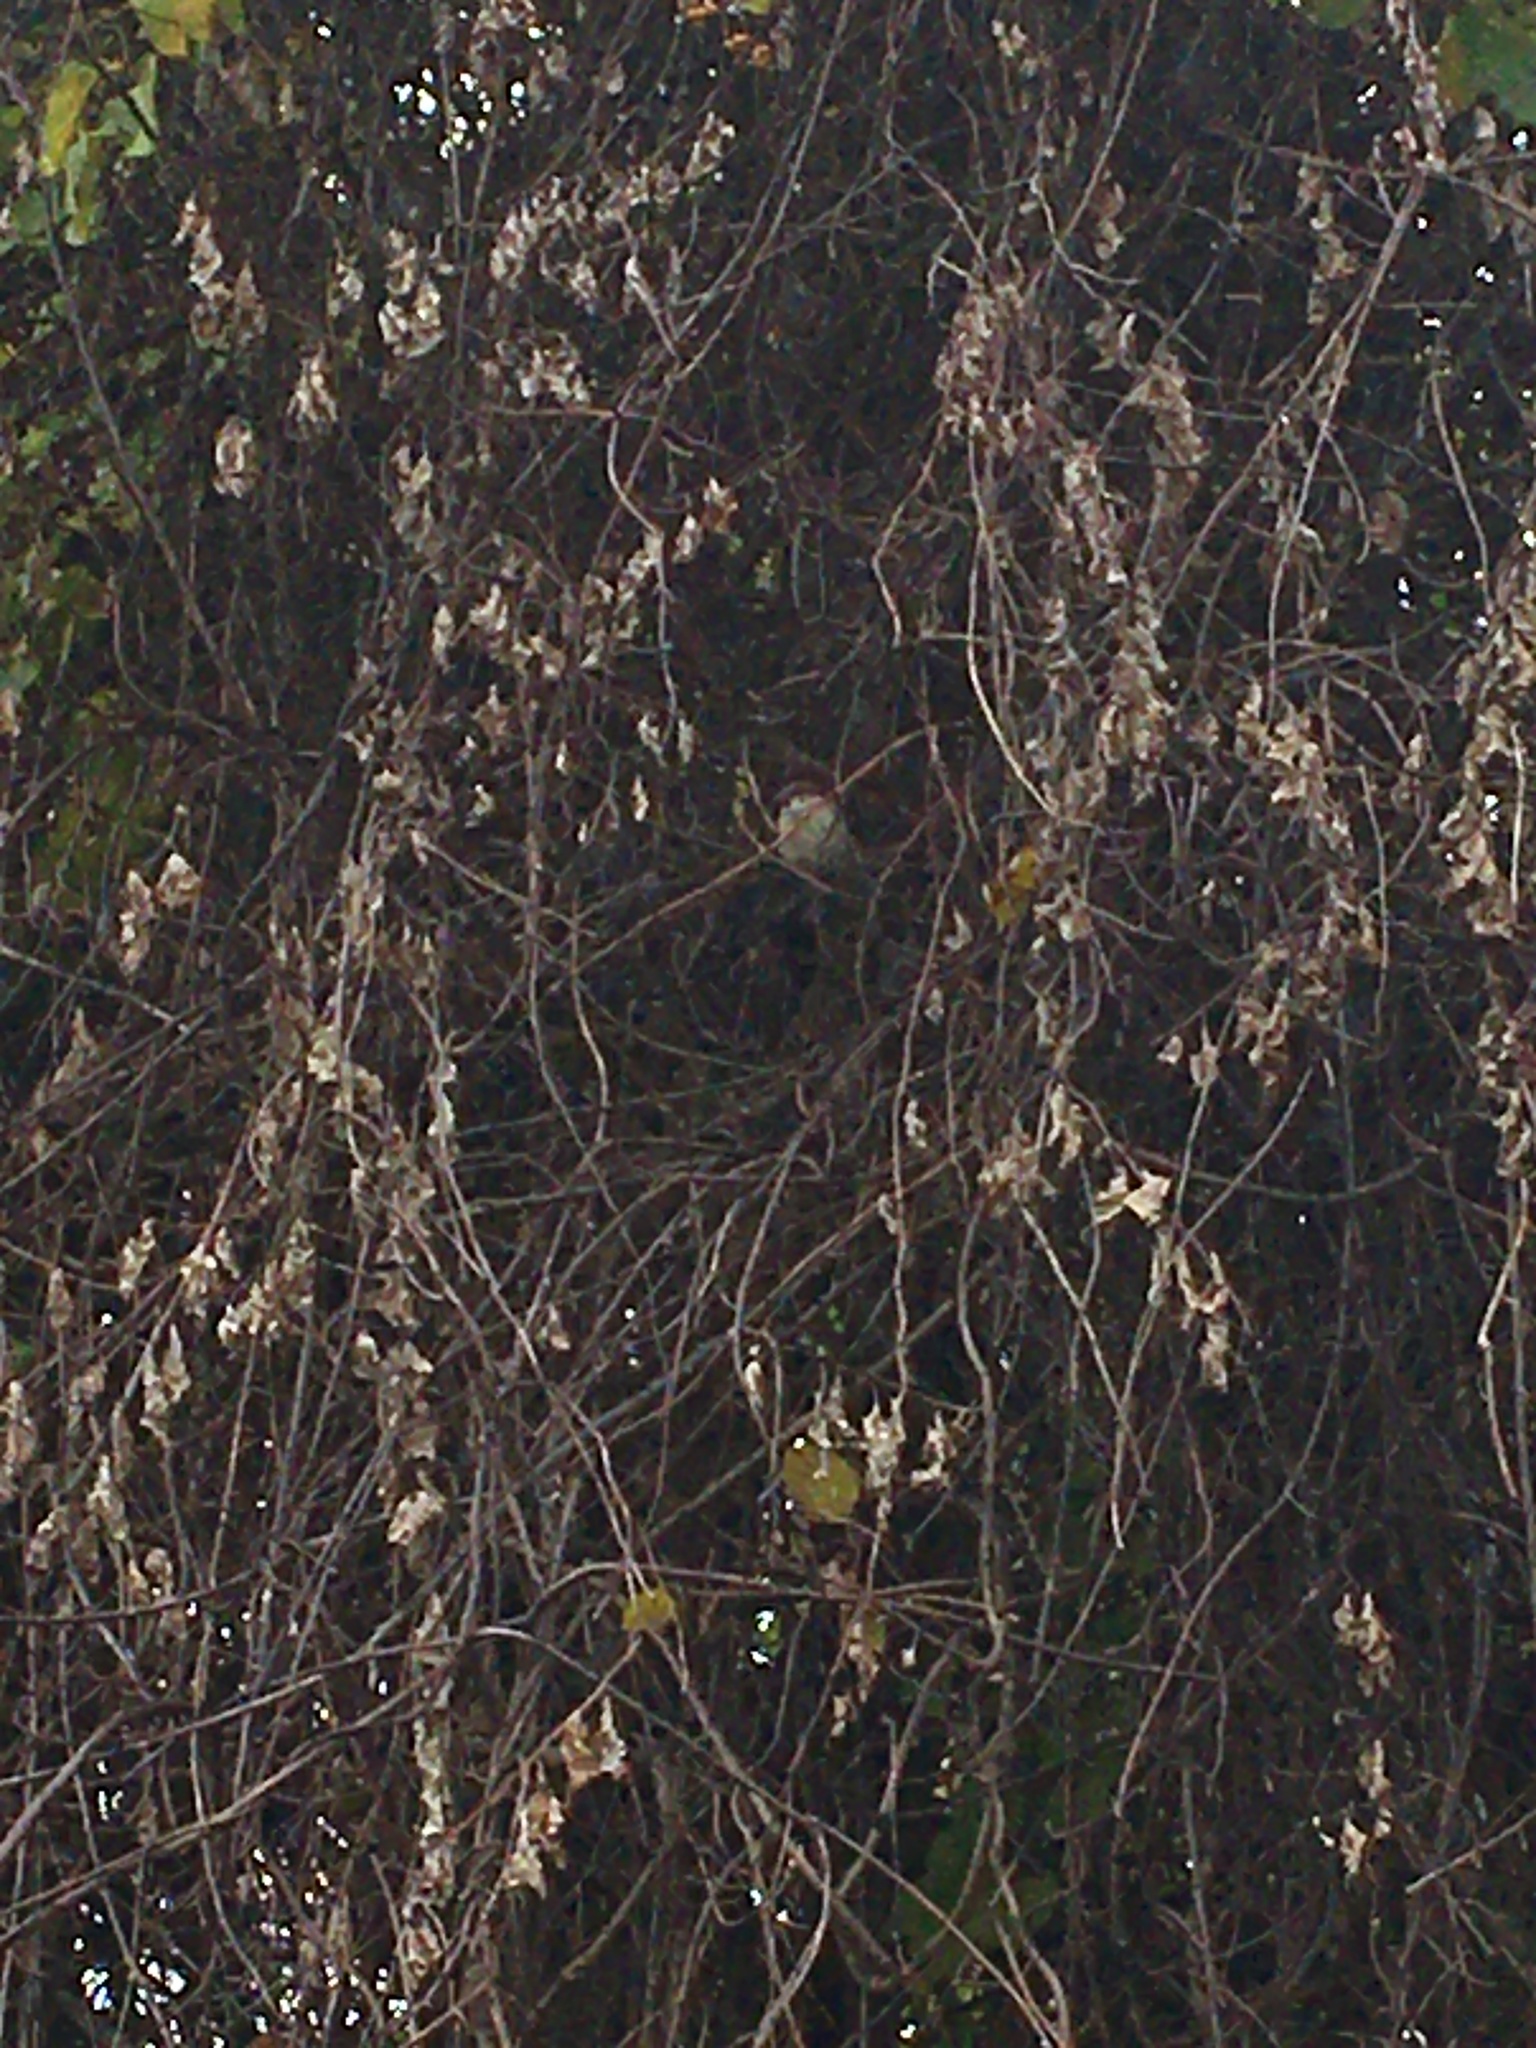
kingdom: Animalia
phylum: Chordata
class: Aves
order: Passeriformes
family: Passeridae
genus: Passer
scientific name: Passer domesticus
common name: House sparrow
